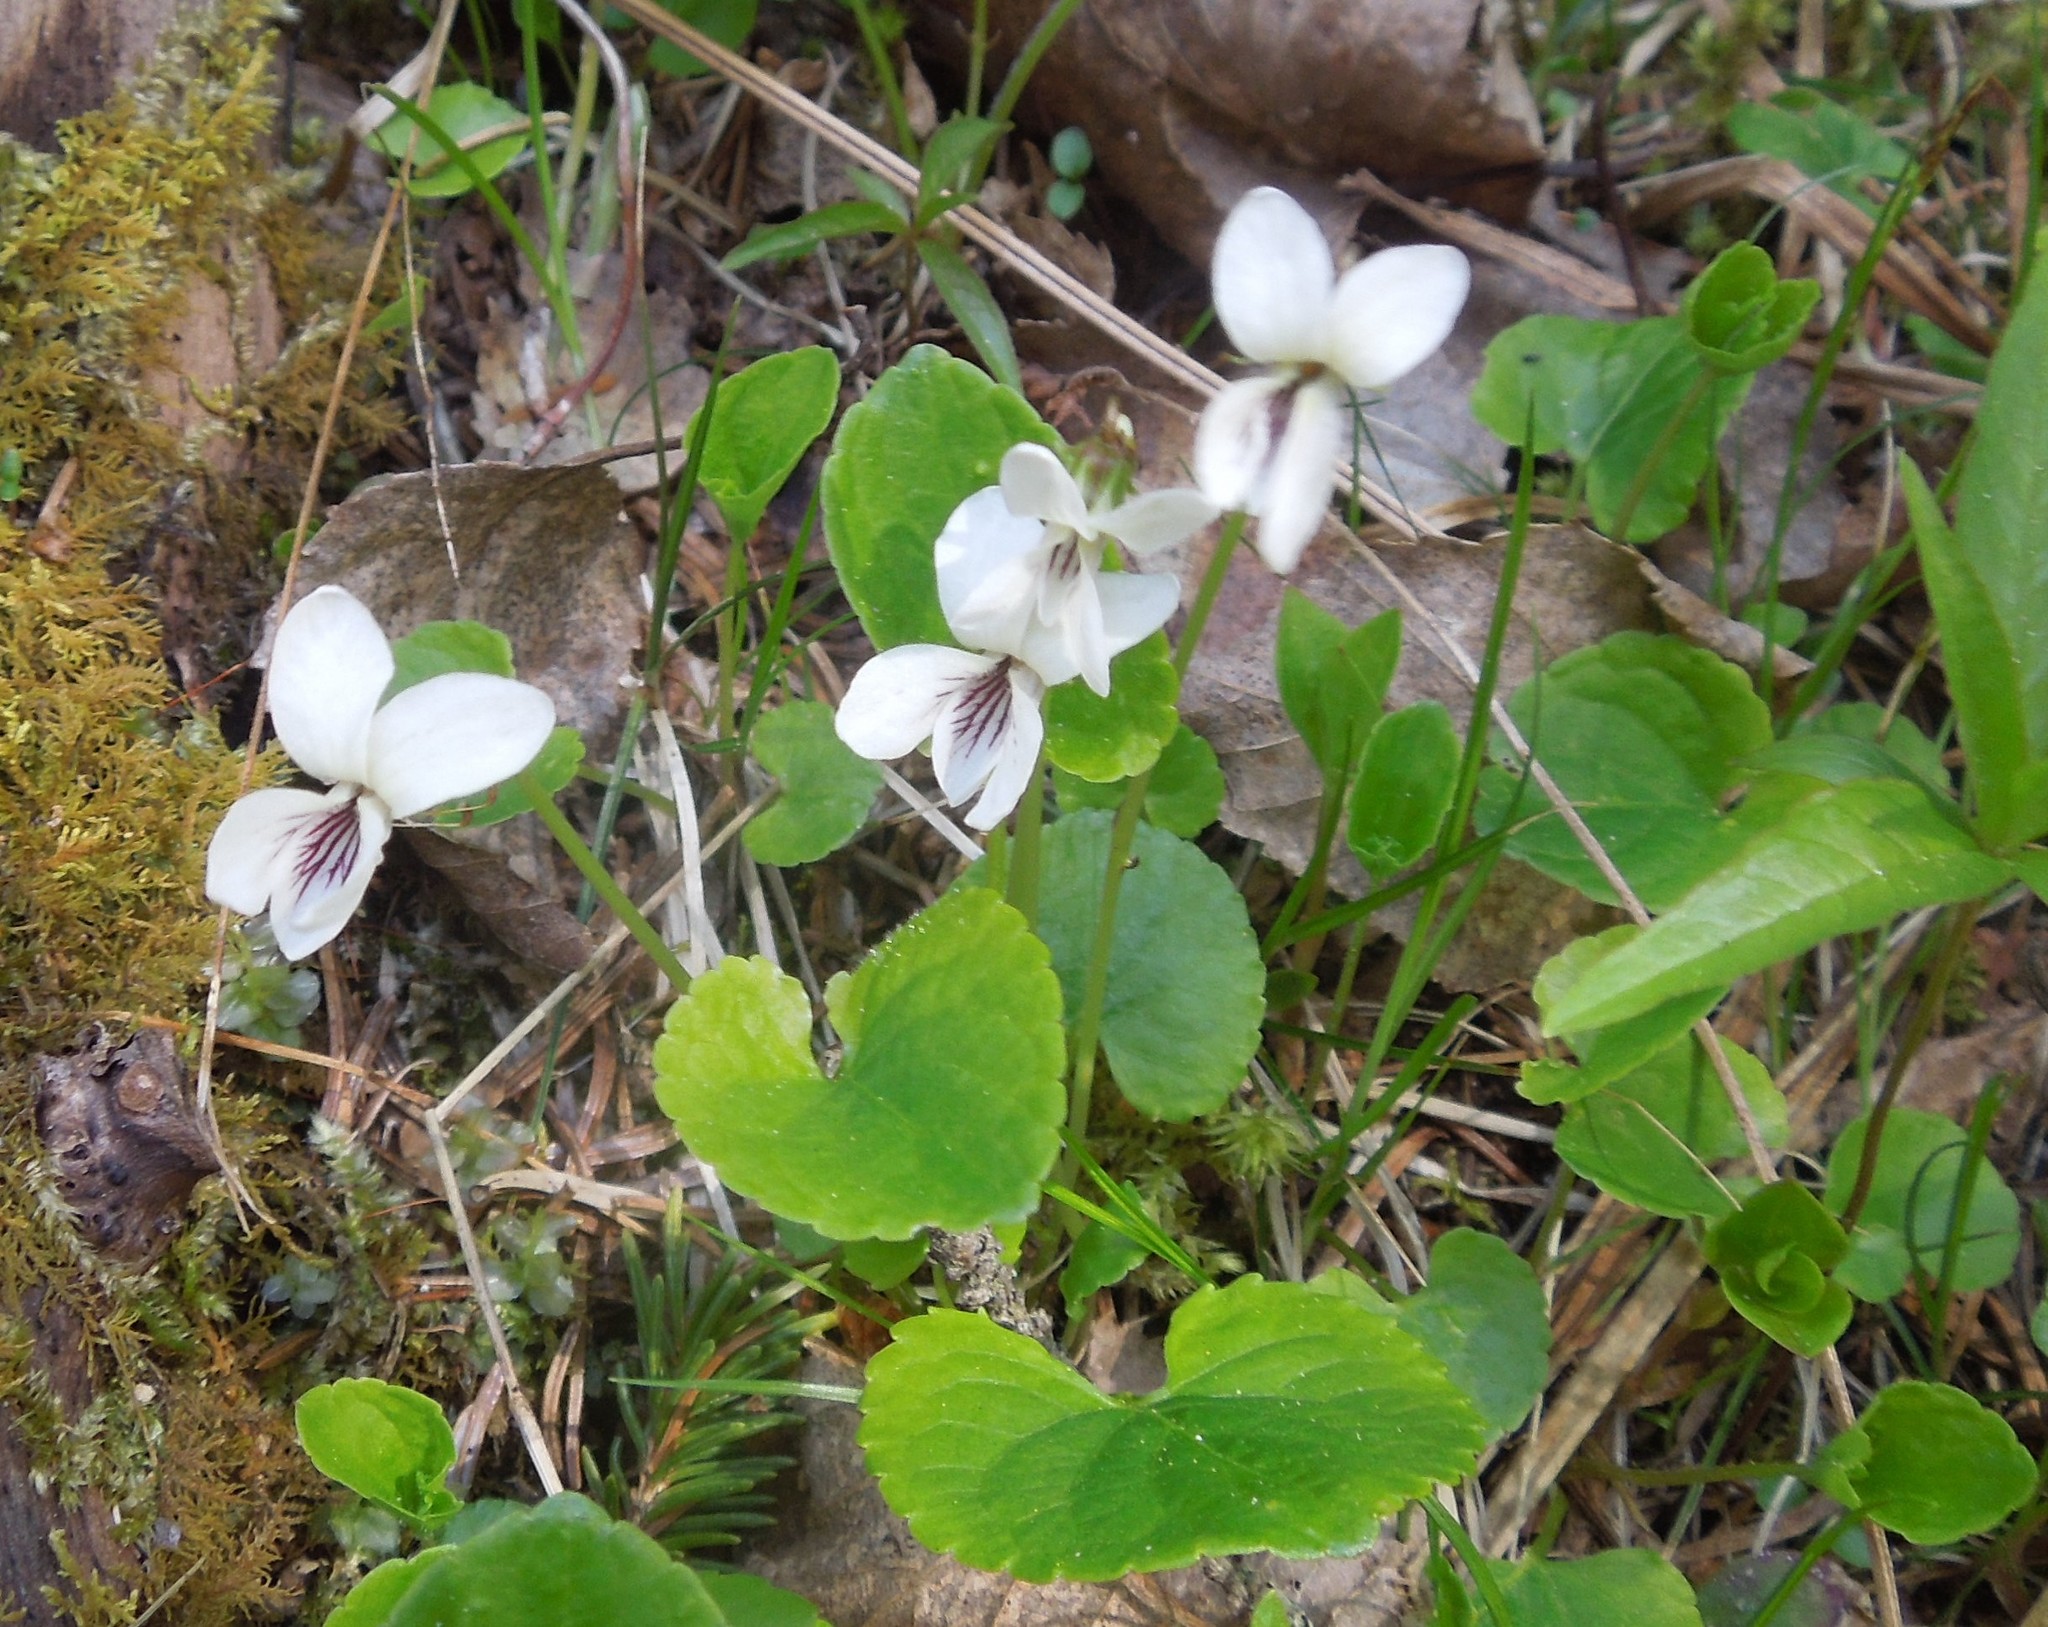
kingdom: Plantae
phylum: Tracheophyta
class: Magnoliopsida
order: Malpighiales
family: Violaceae
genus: Viola
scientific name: Viola minuscula
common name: Northern white violet
